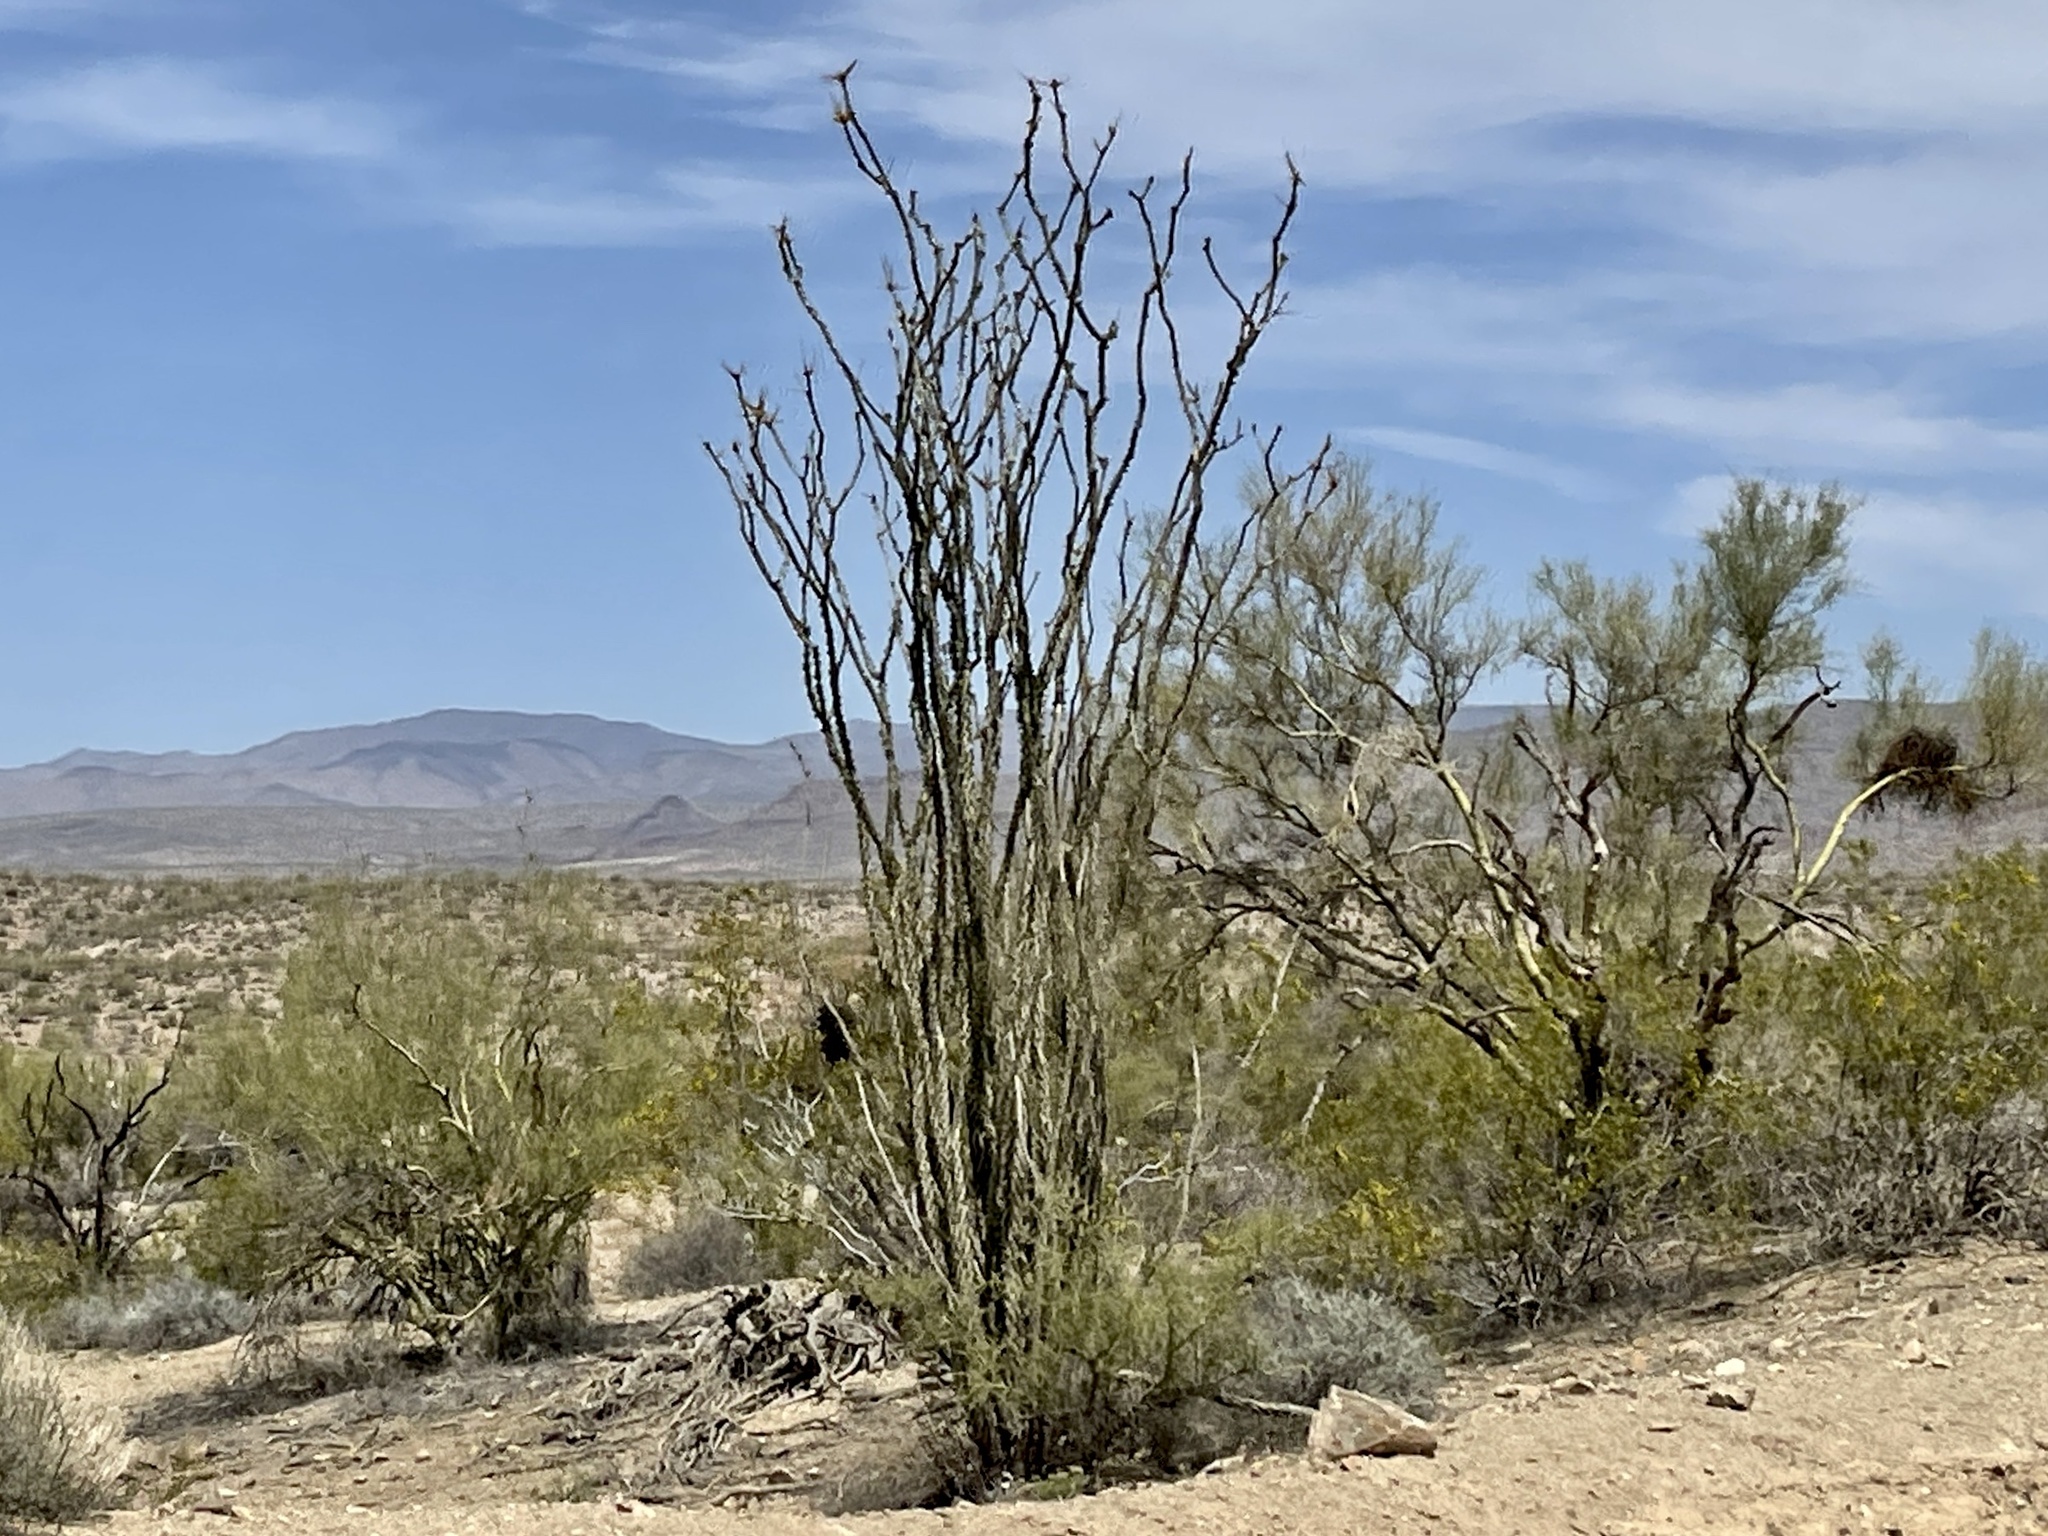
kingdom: Plantae
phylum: Tracheophyta
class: Magnoliopsida
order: Ericales
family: Fouquieriaceae
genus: Fouquieria
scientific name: Fouquieria splendens
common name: Vine-cactus
